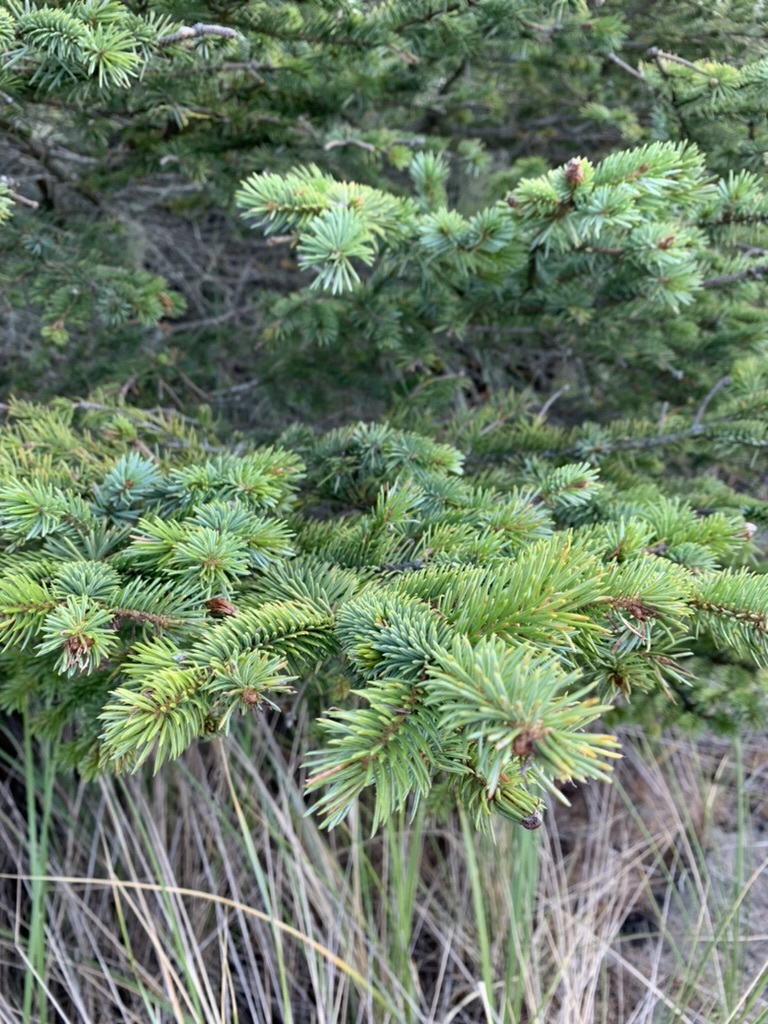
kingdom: Plantae
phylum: Tracheophyta
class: Pinopsida
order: Pinales
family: Pinaceae
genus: Pseudotsuga
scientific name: Pseudotsuga menziesii
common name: Douglas fir
